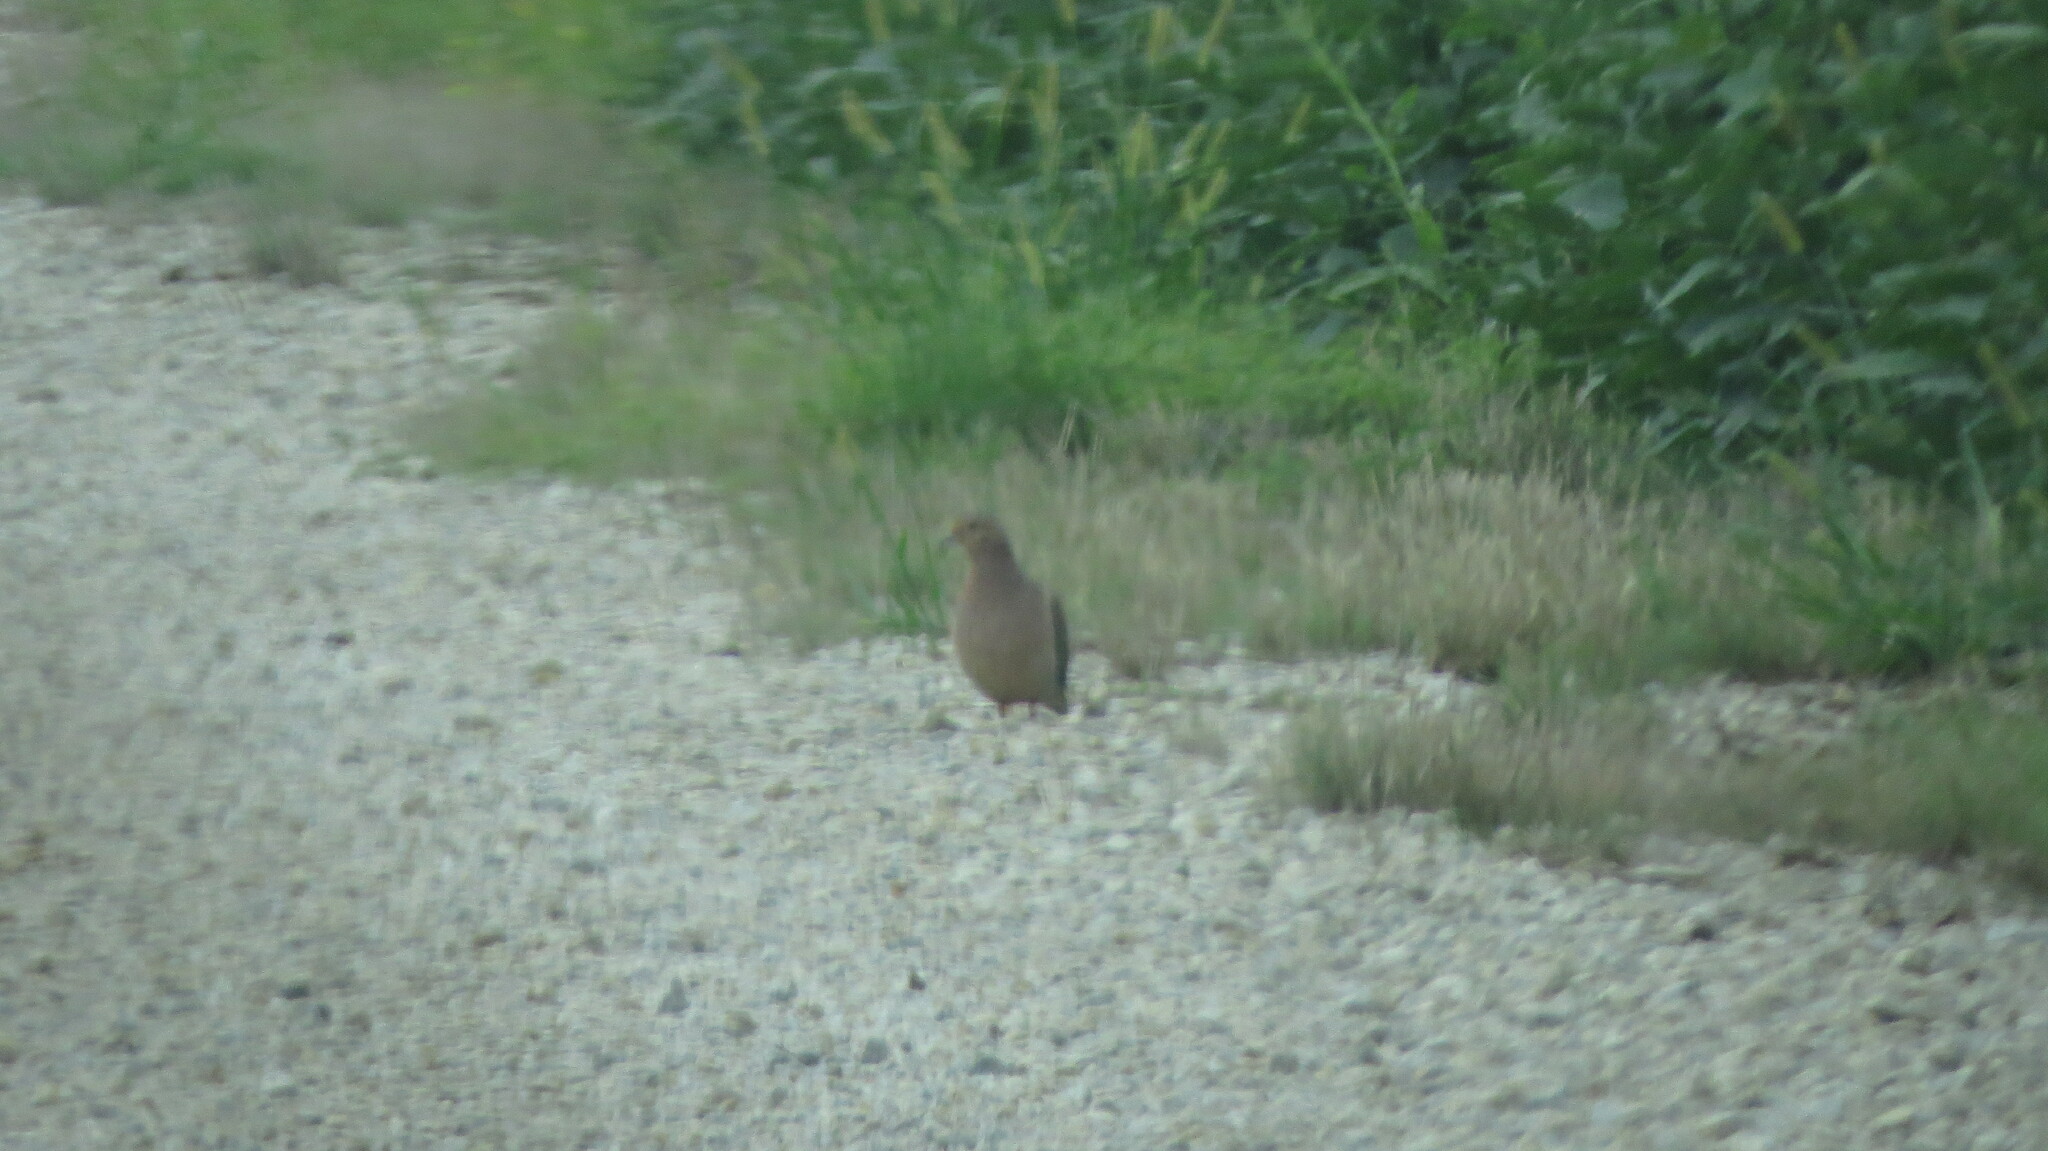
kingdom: Animalia
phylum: Chordata
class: Aves
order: Columbiformes
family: Columbidae
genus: Zenaida
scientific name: Zenaida macroura
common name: Mourning dove
